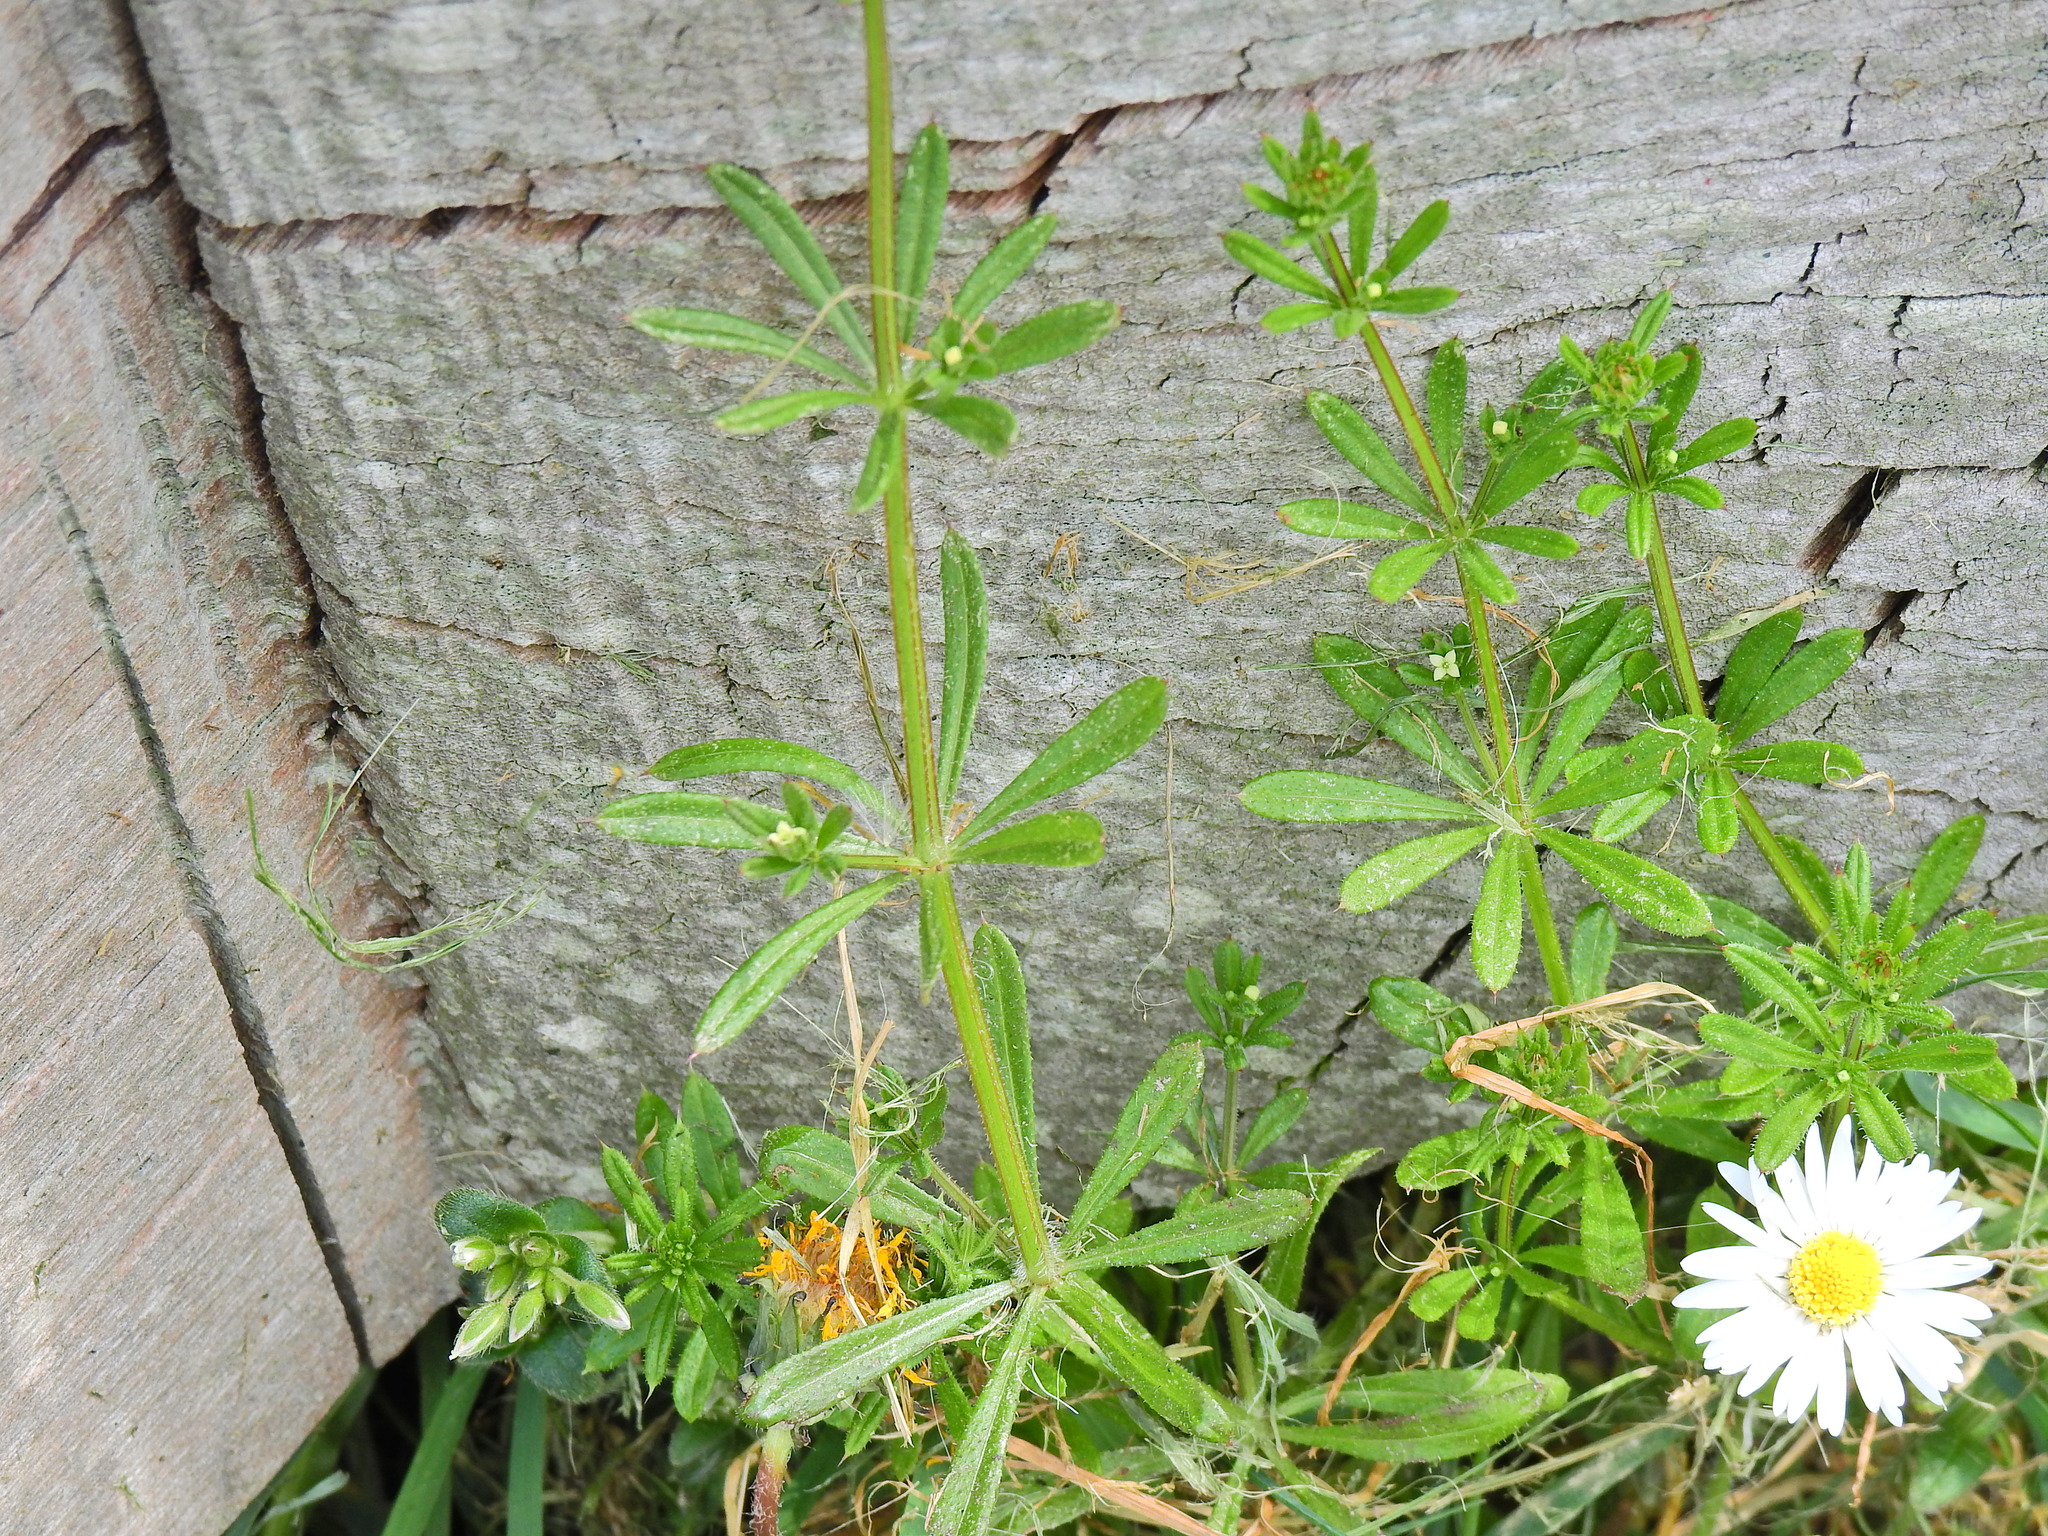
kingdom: Plantae
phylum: Tracheophyta
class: Magnoliopsida
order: Gentianales
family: Rubiaceae
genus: Galium
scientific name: Galium aparine
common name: Cleavers
